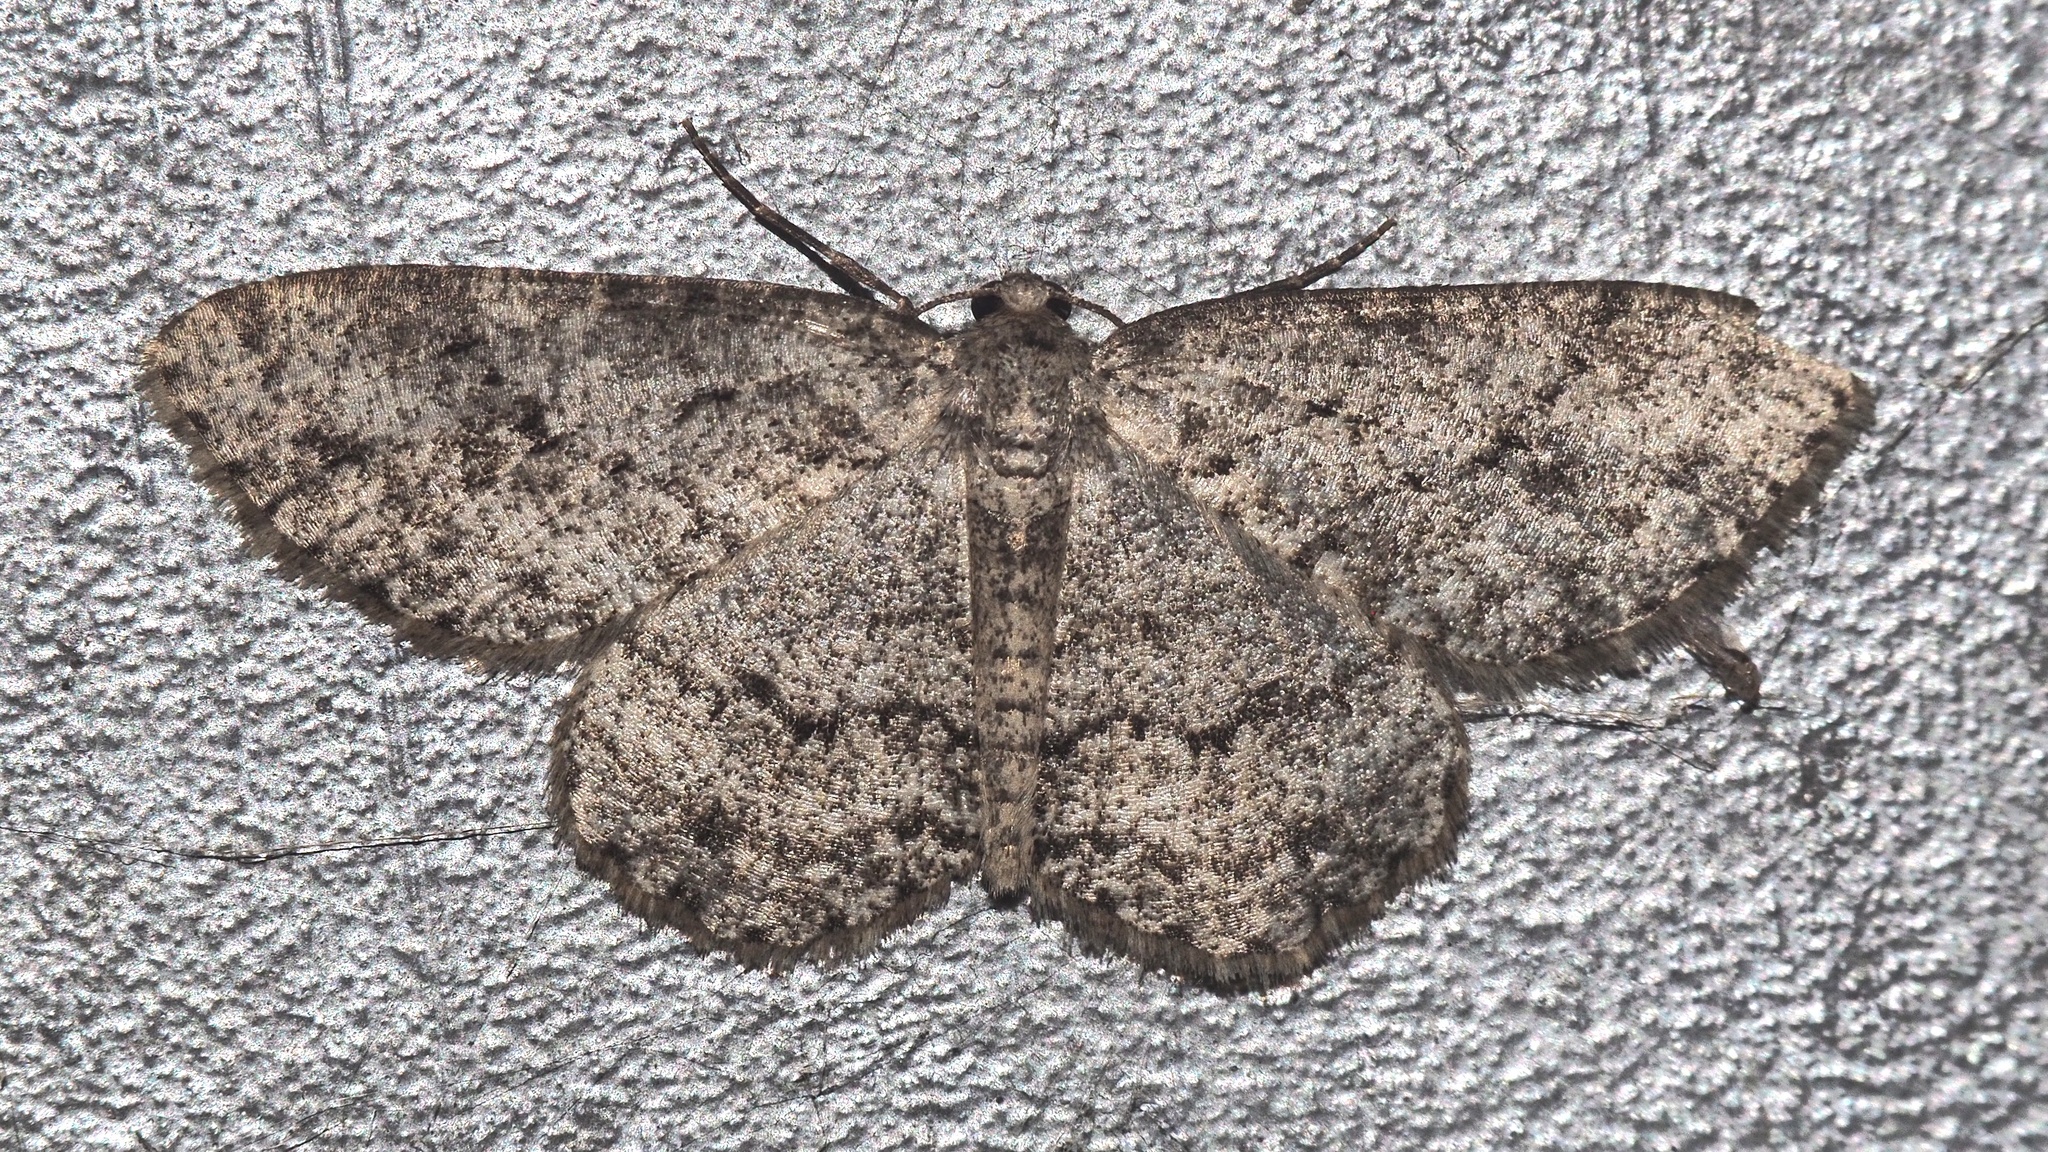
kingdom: Animalia
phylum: Arthropoda
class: Insecta
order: Lepidoptera
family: Geometridae
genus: Ectropis
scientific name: Ectropis crepuscularia
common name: Engrailed
